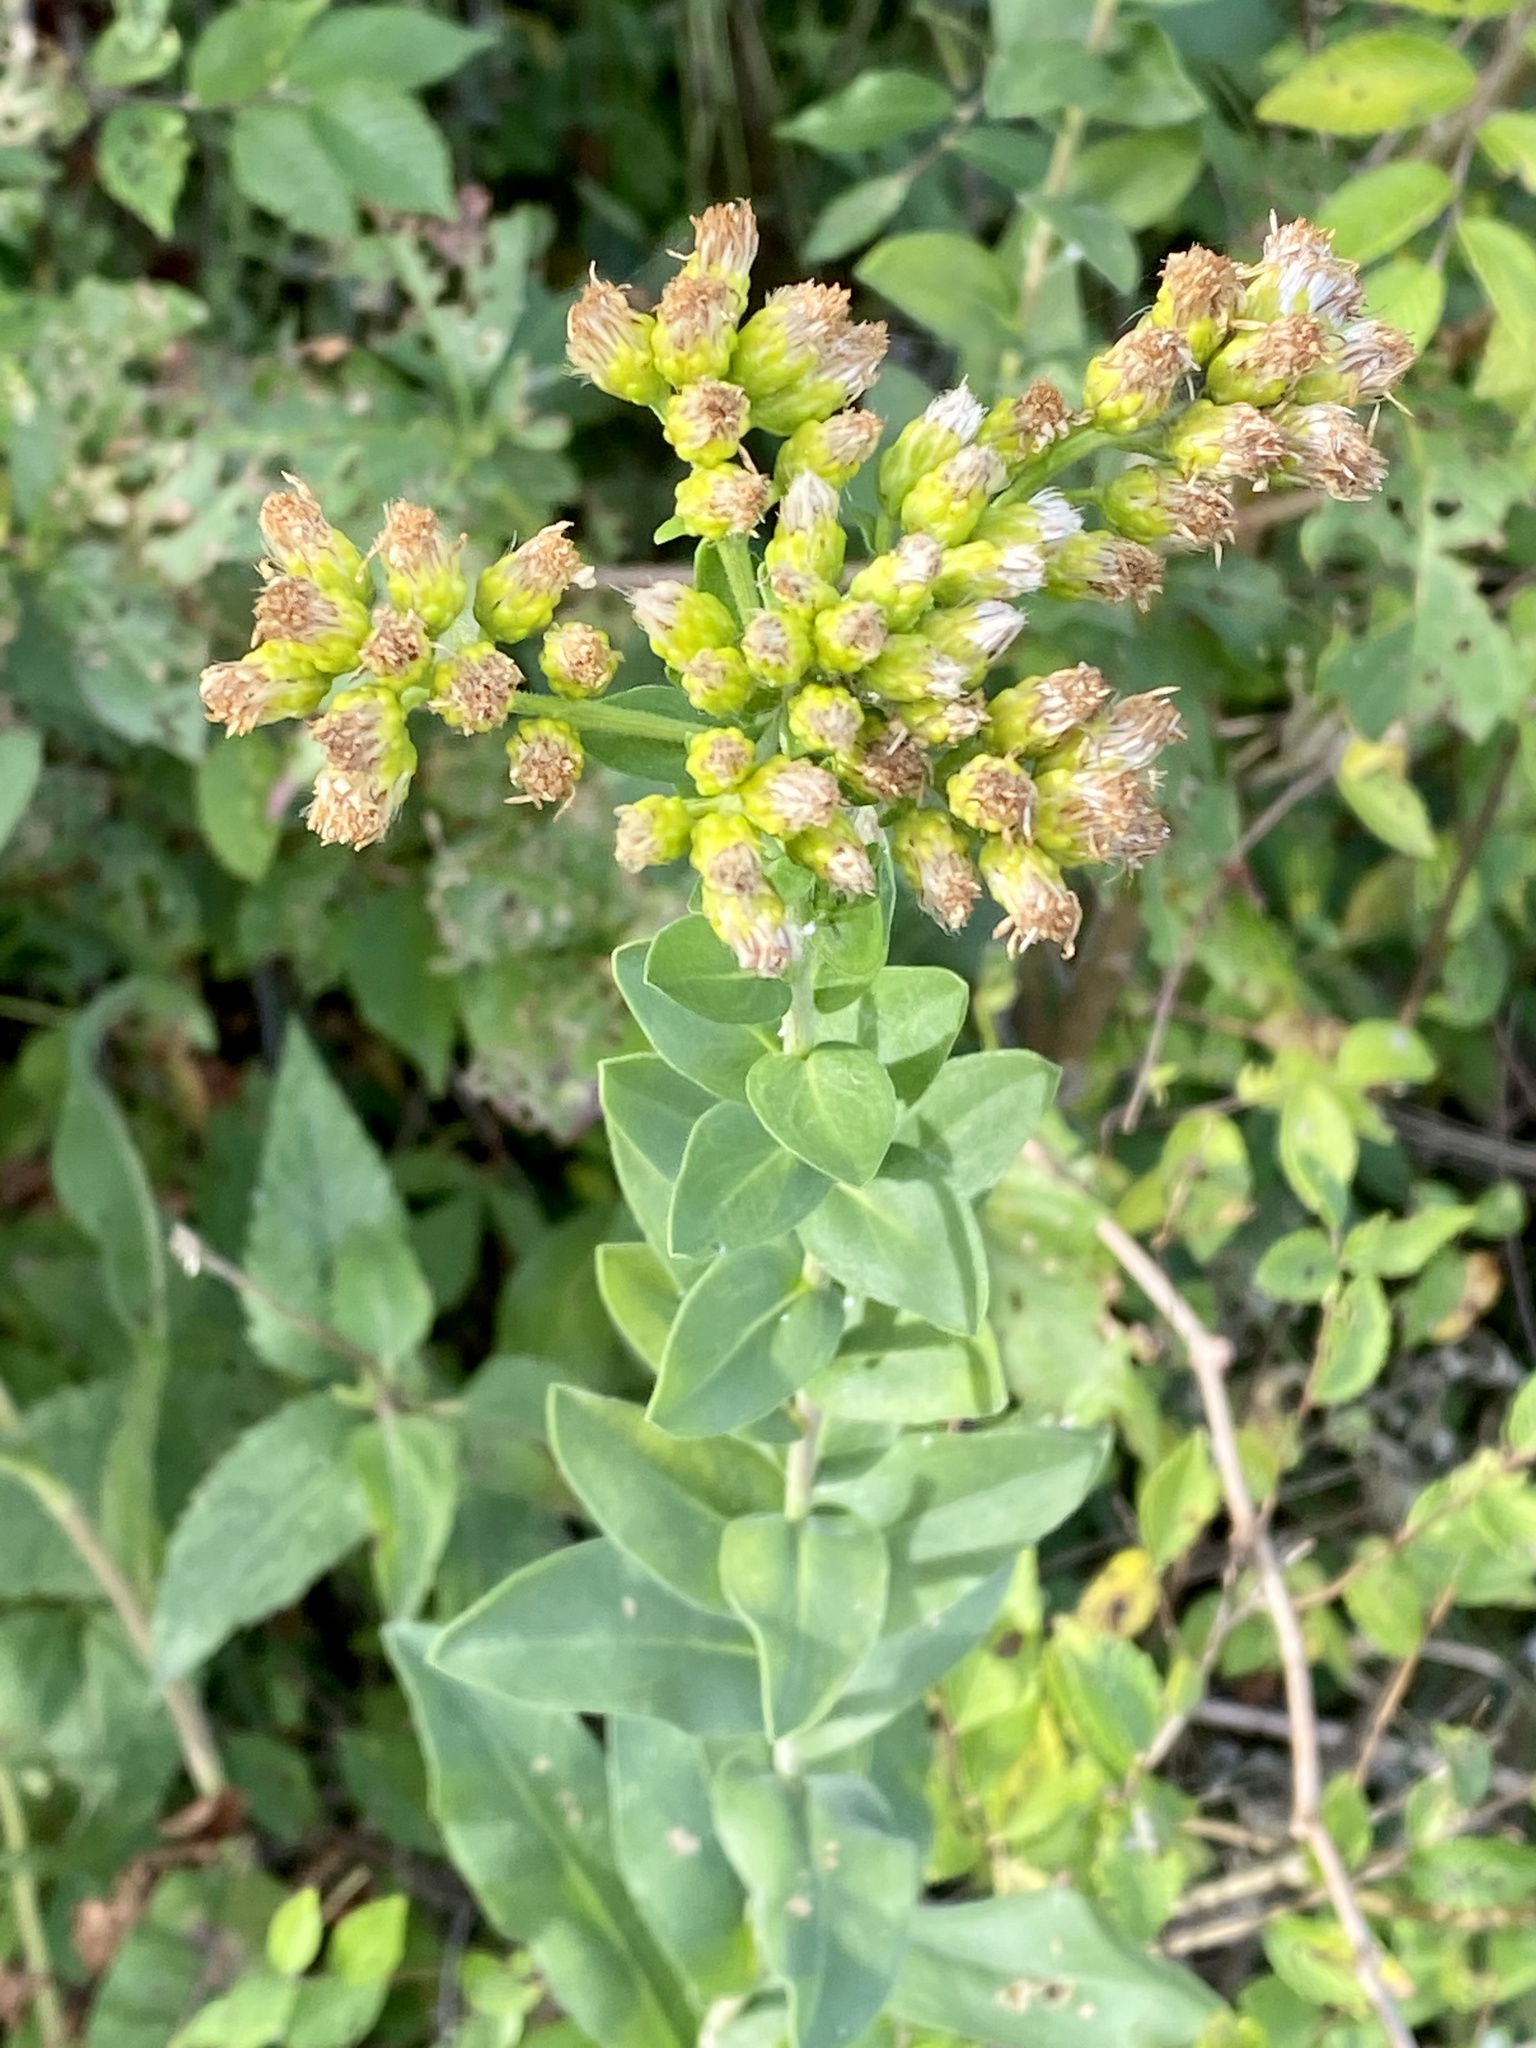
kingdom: Plantae
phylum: Tracheophyta
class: Magnoliopsida
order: Asterales
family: Asteraceae
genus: Solidago
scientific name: Solidago rigida
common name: Rigid goldenrod
